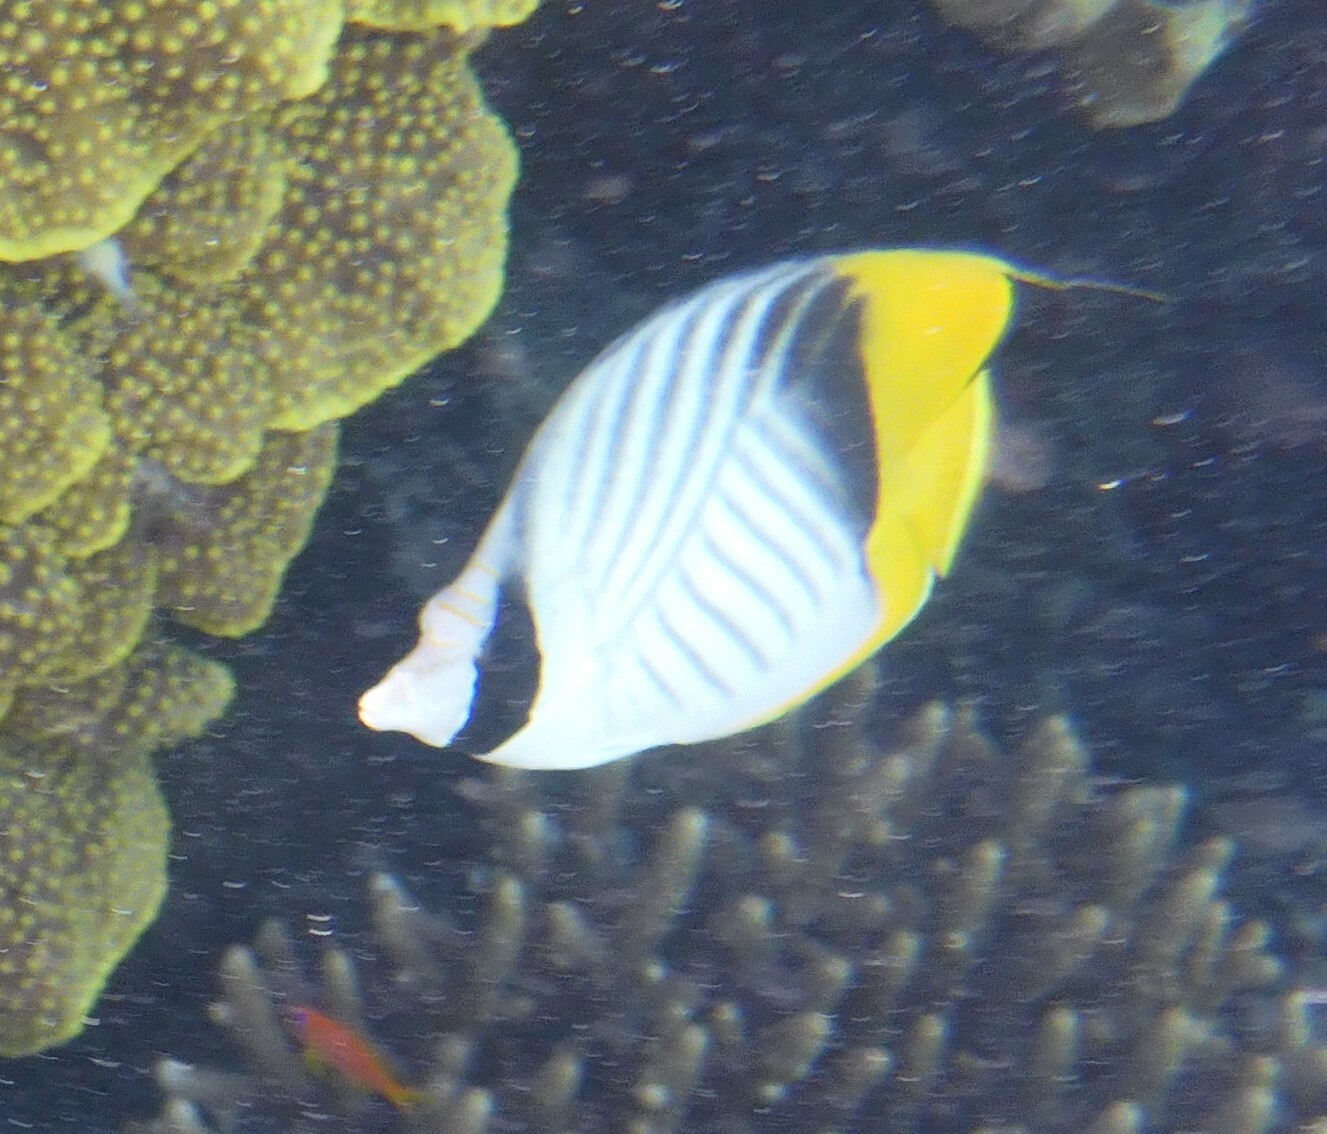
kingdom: Animalia
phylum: Chordata
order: Perciformes
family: Chaetodontidae
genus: Chaetodon
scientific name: Chaetodon auriga
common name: Threadfin butterflyfish
